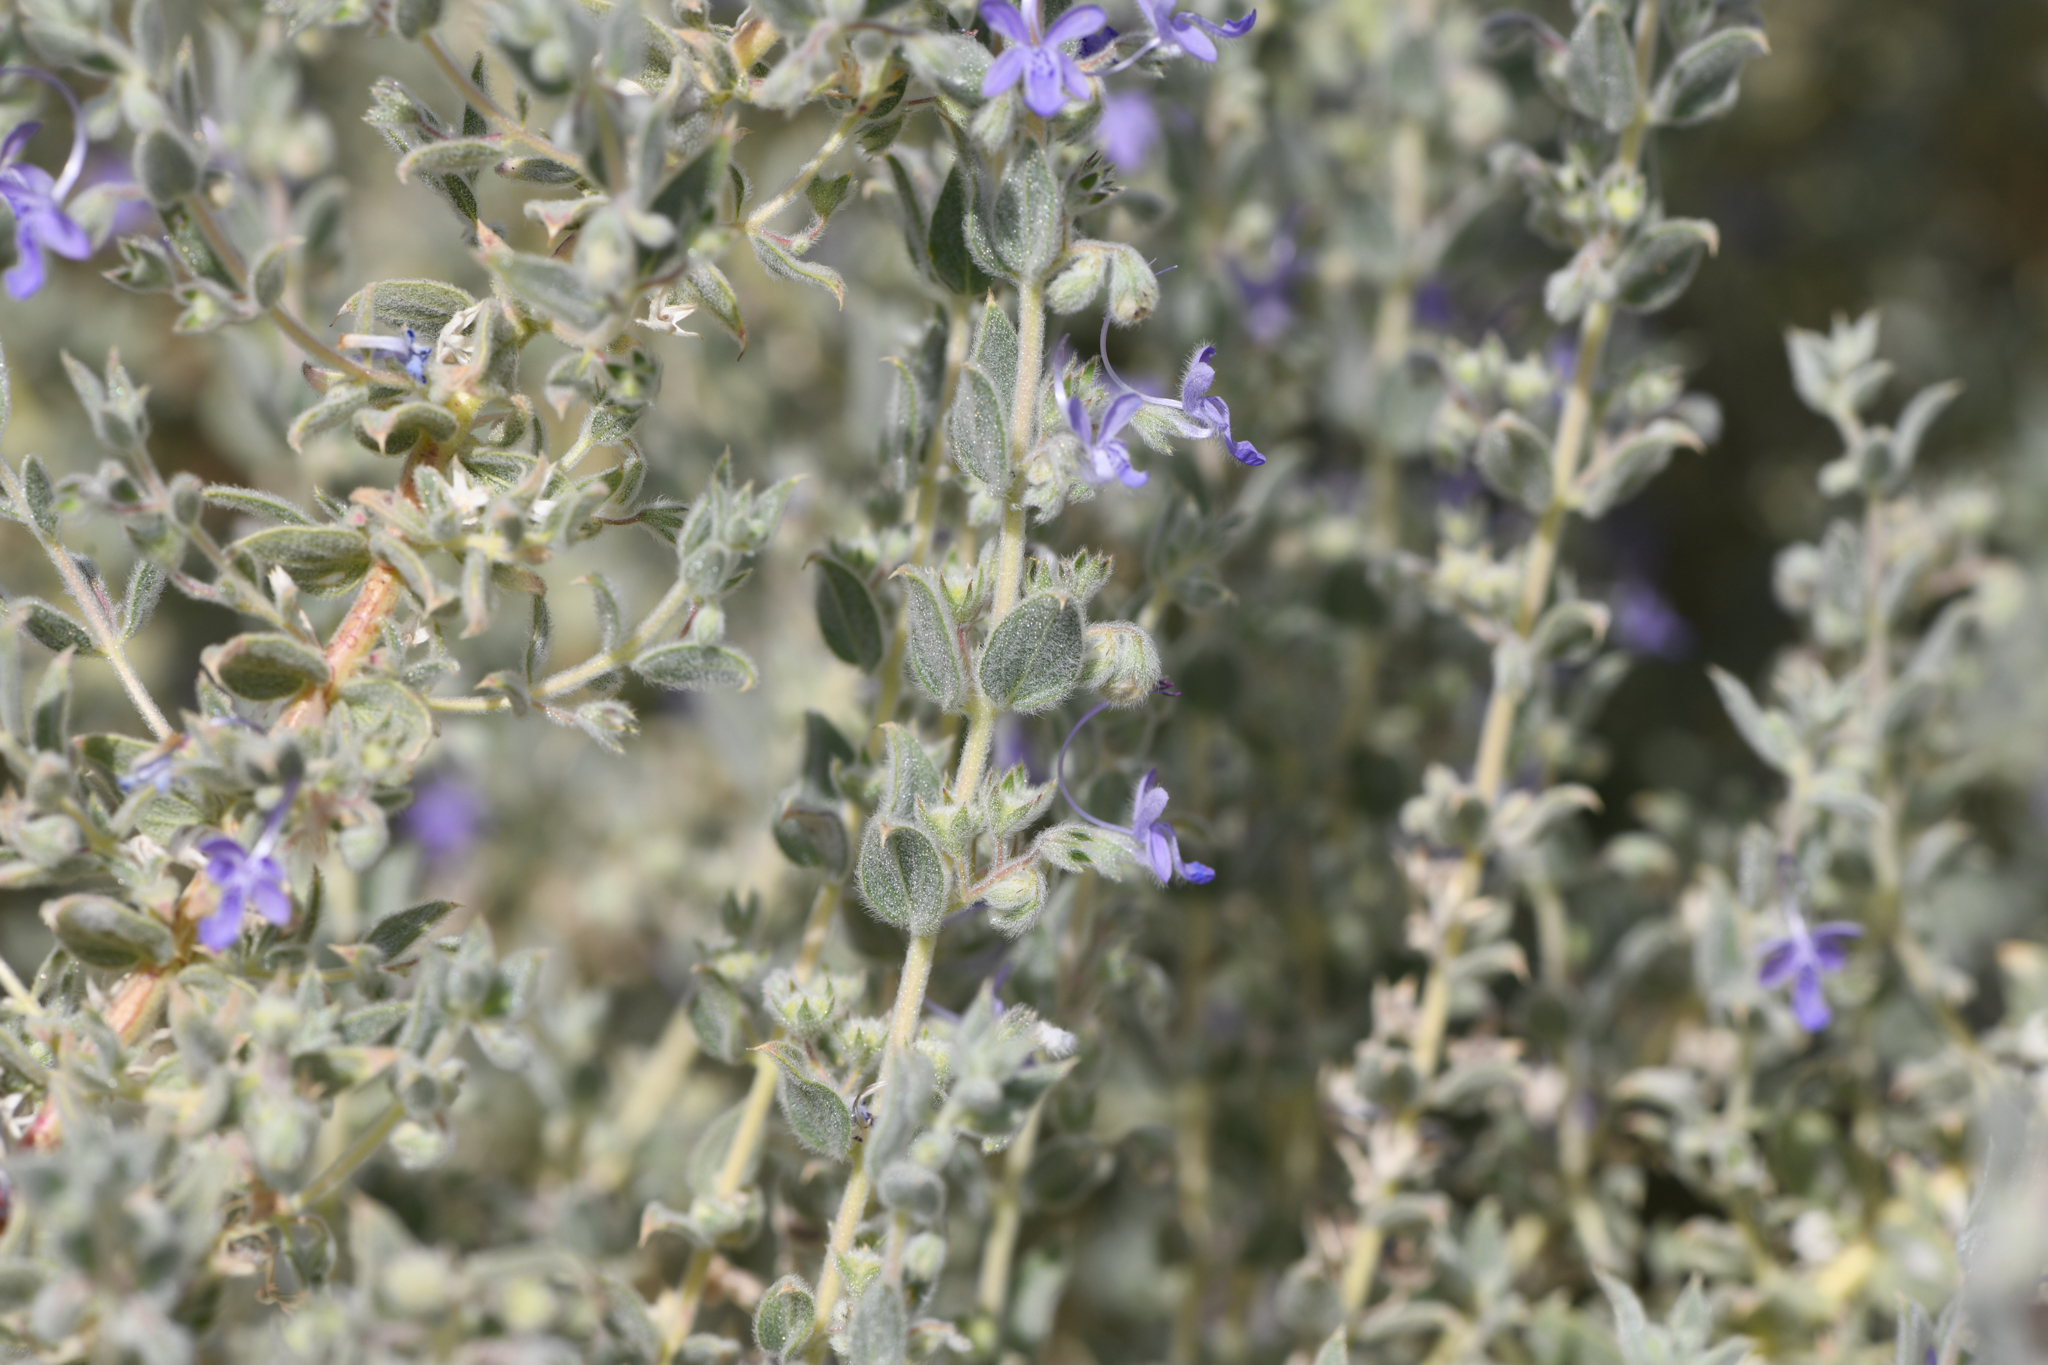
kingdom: Plantae
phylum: Tracheophyta
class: Magnoliopsida
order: Lamiales
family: Lamiaceae
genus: Trichostema
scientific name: Trichostema ovatum
